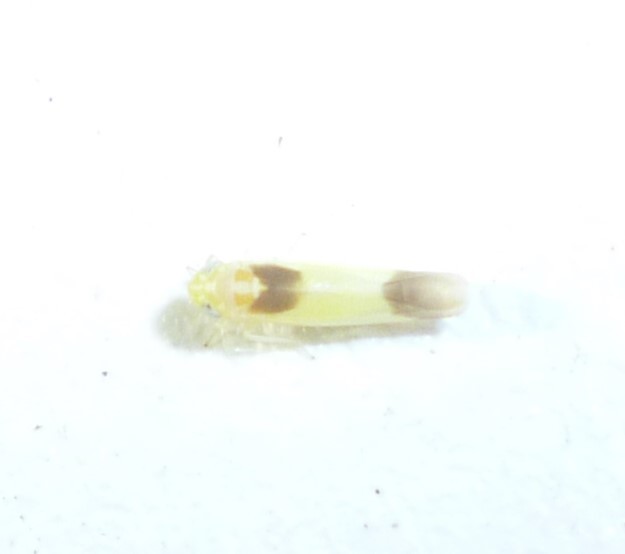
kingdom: Animalia
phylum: Arthropoda
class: Insecta
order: Hemiptera
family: Cicadellidae
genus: Empoasca
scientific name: Empoasca
